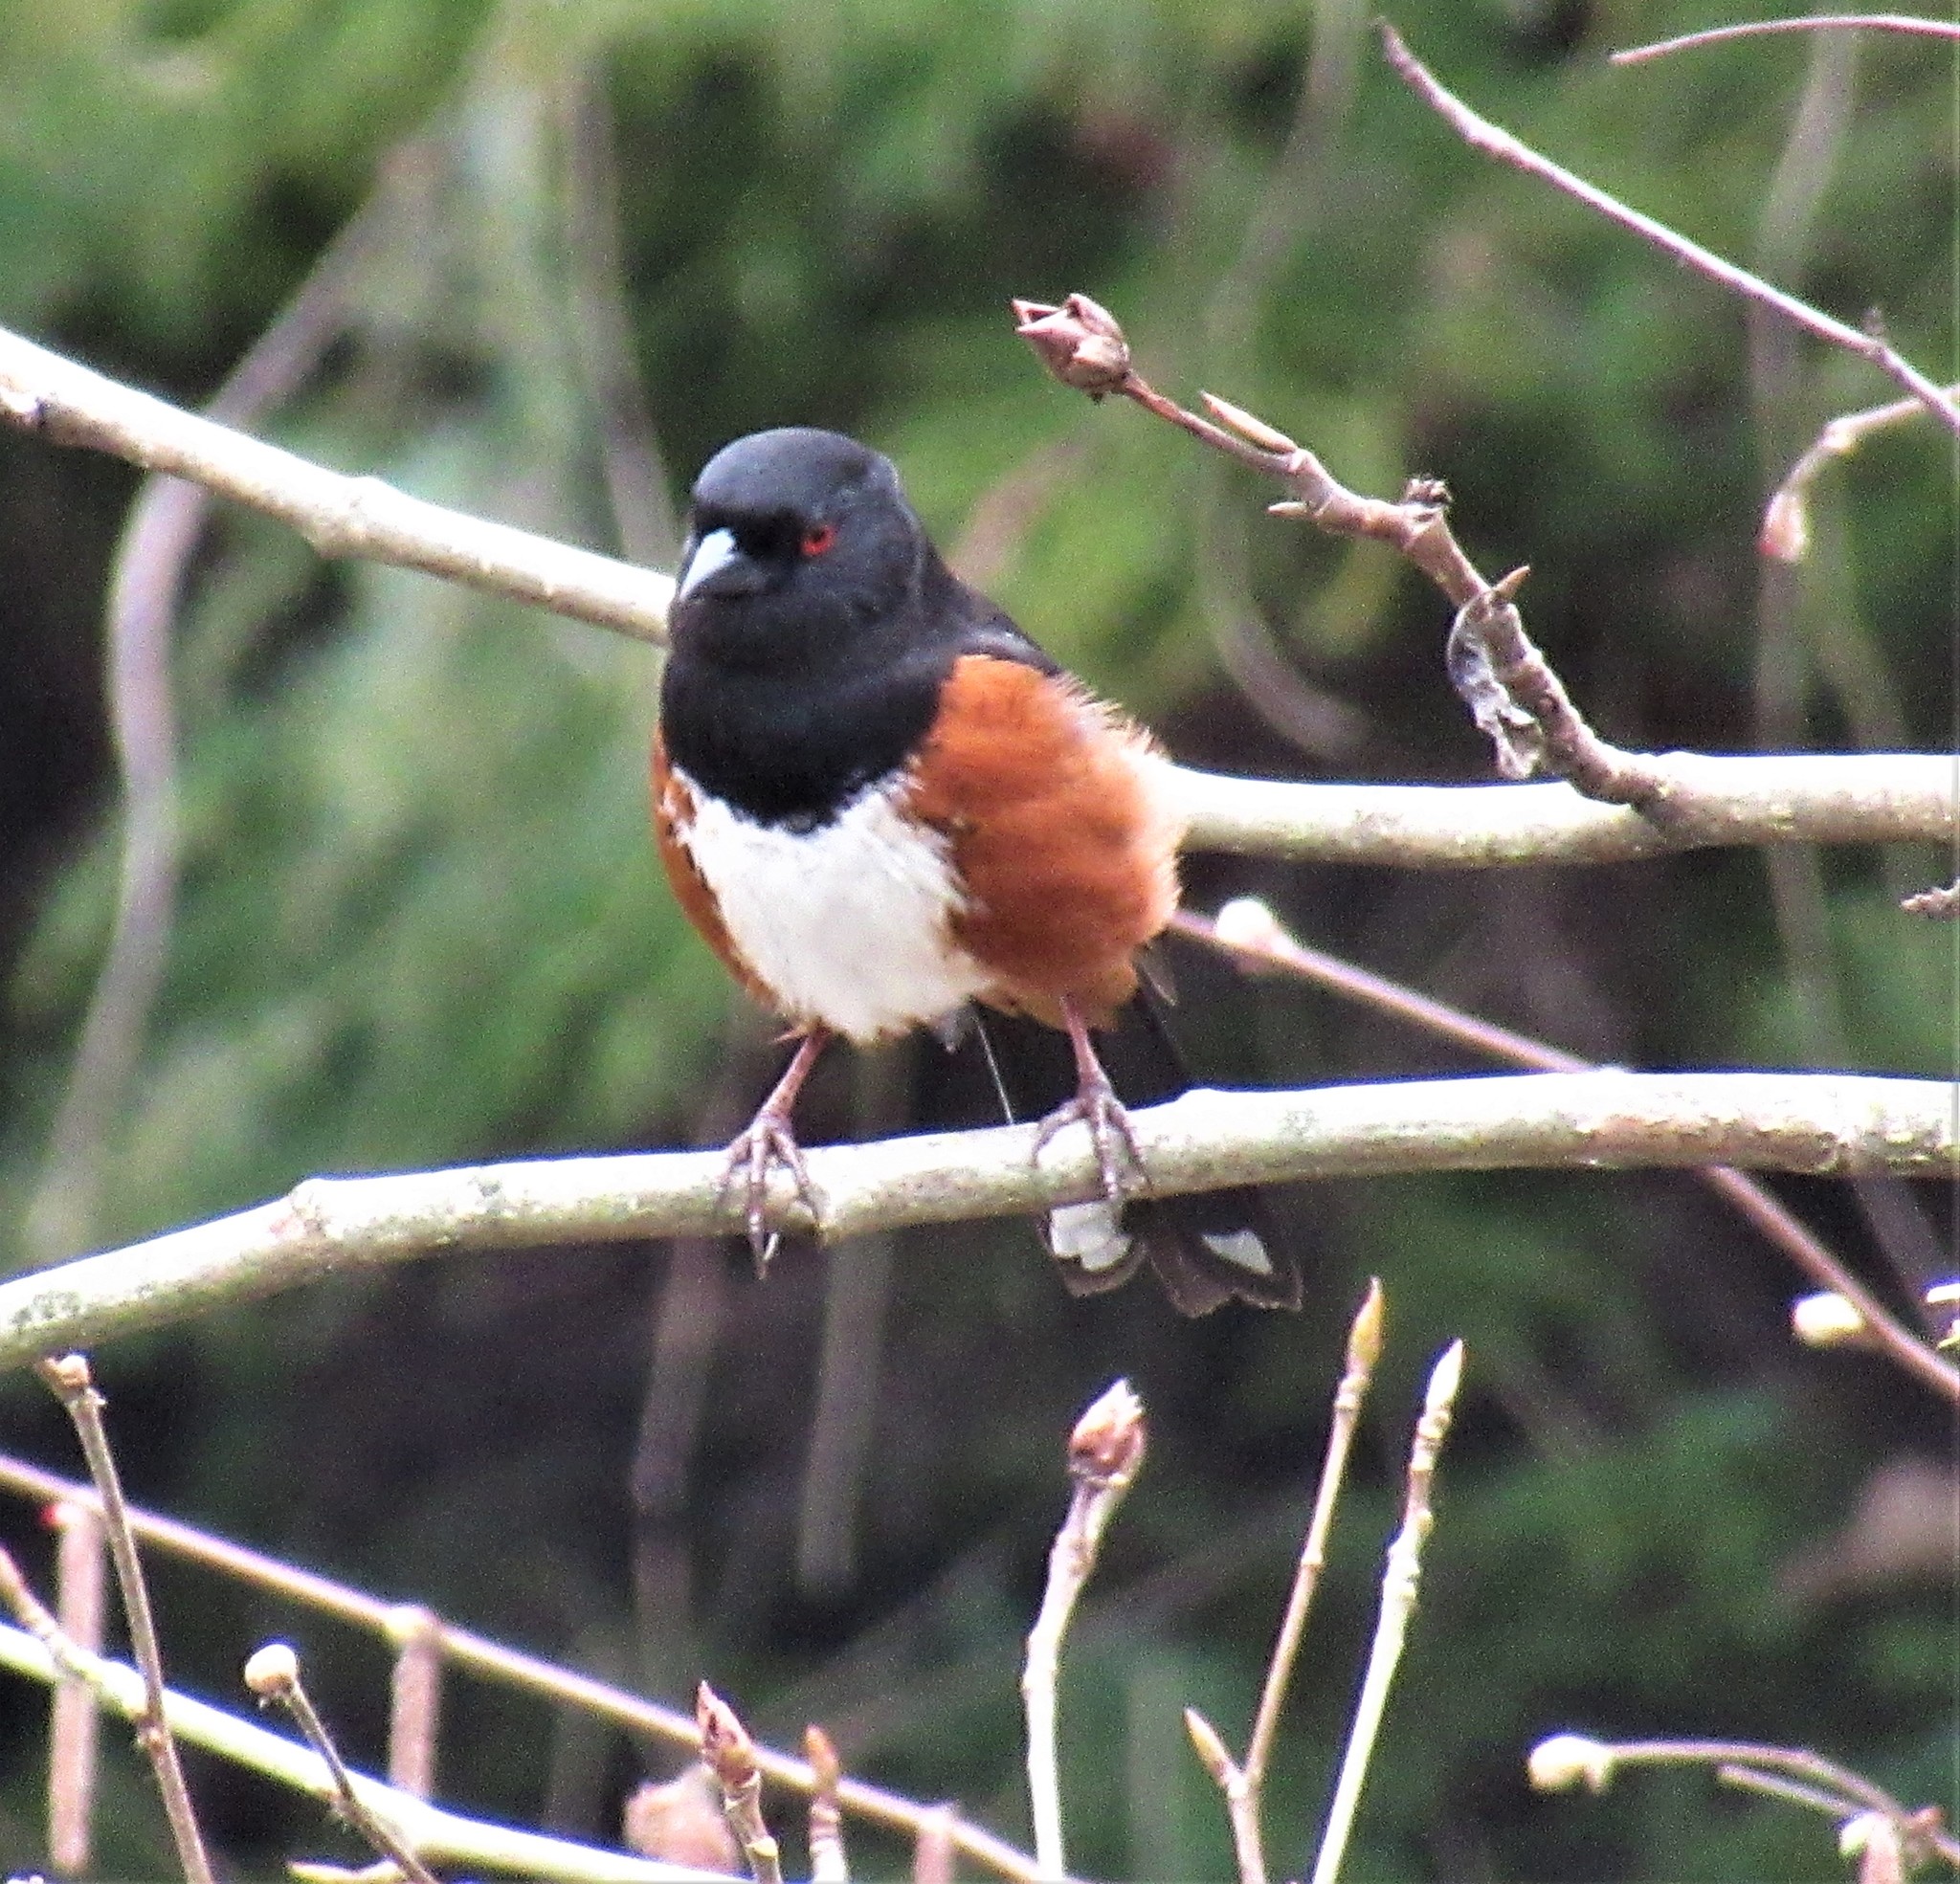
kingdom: Animalia
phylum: Chordata
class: Aves
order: Passeriformes
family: Passerellidae
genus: Pipilo
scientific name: Pipilo maculatus
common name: Spotted towhee
